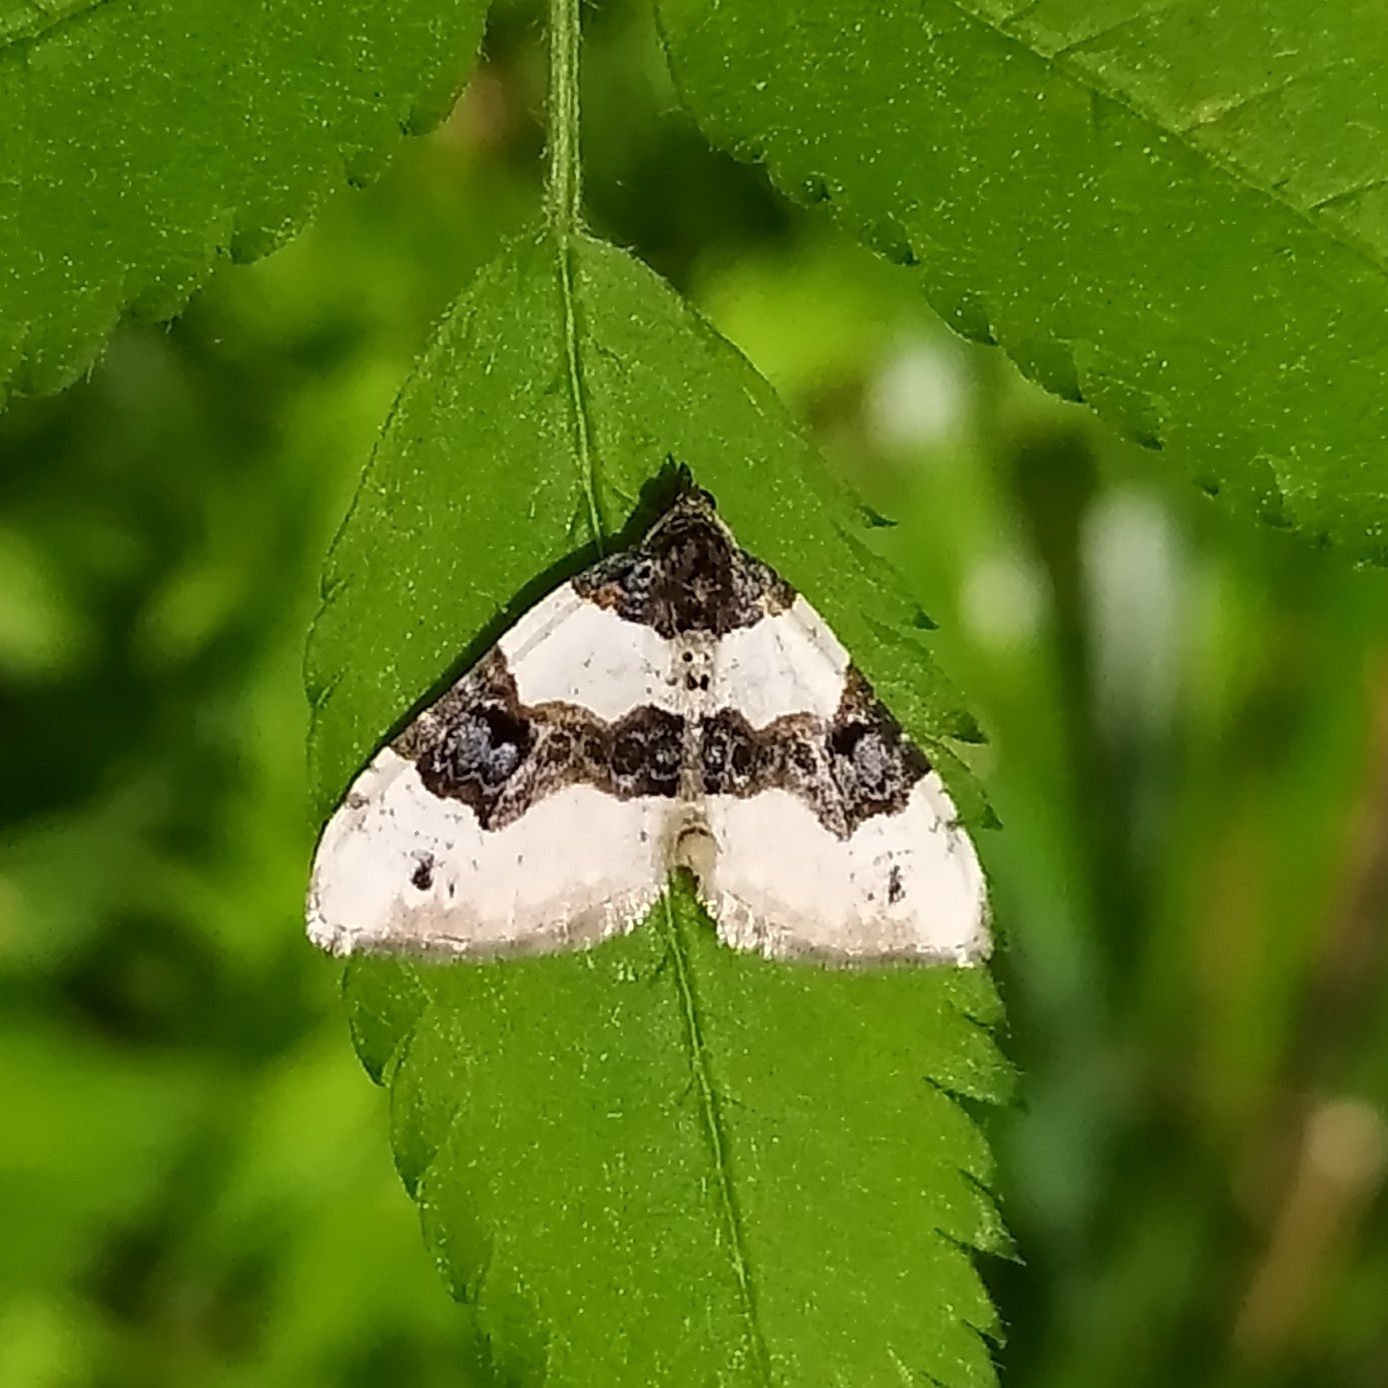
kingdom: Animalia
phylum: Arthropoda
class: Insecta
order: Lepidoptera
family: Geometridae
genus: Cosmorhoe
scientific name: Cosmorhoe ocellata
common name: Purple bar
